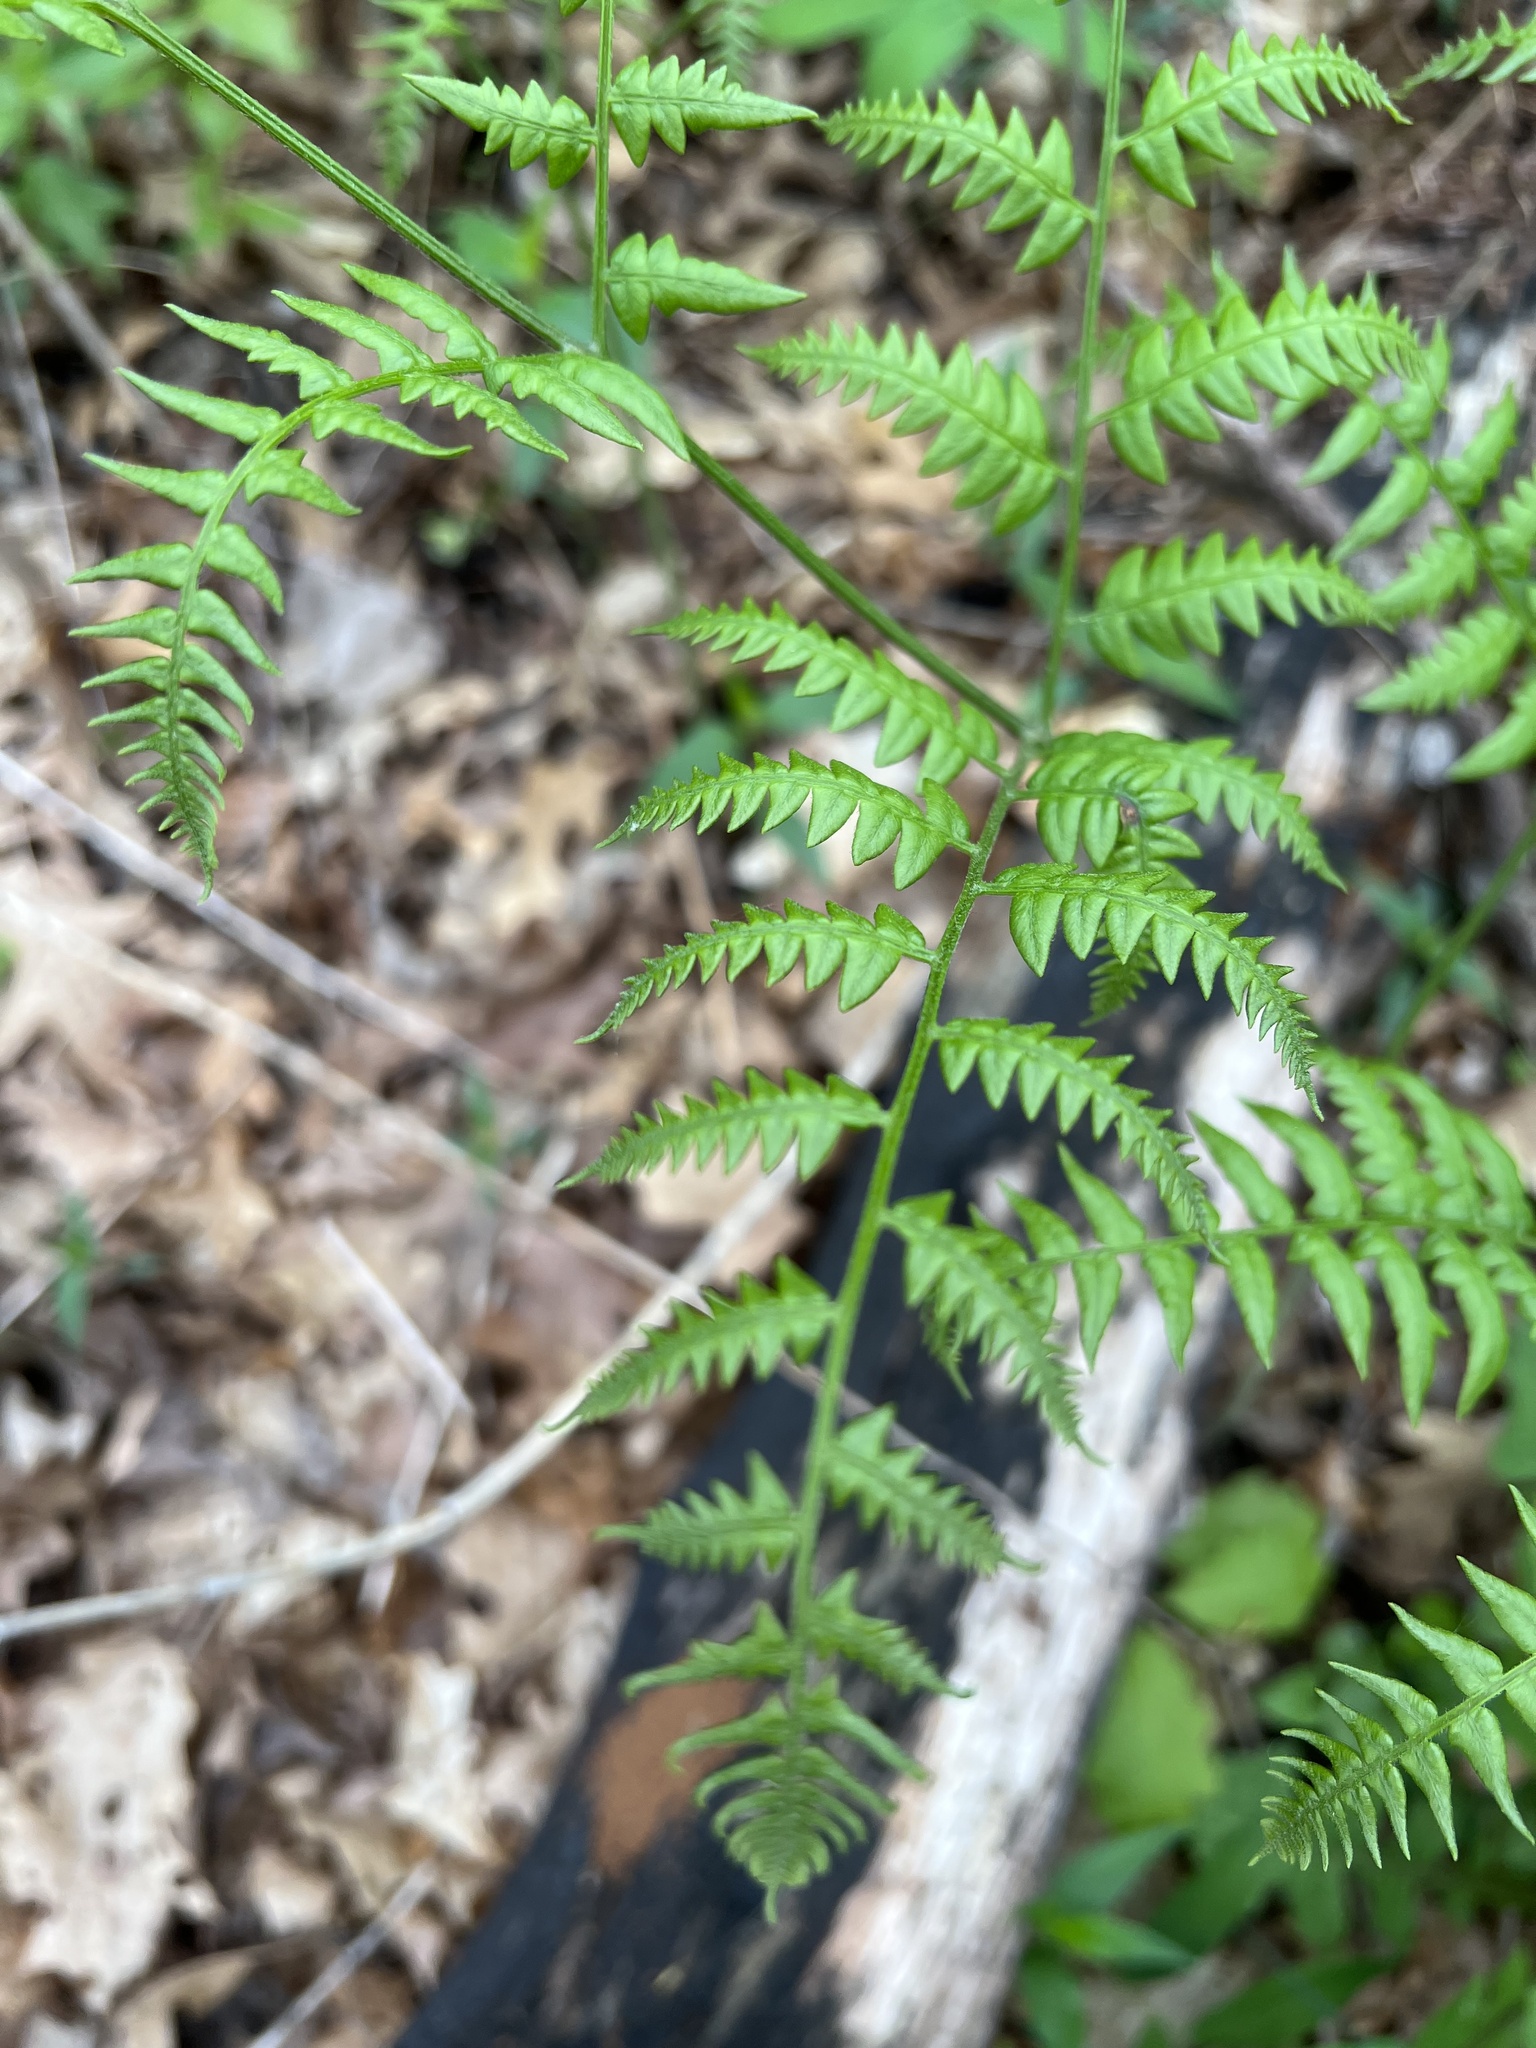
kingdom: Plantae
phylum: Tracheophyta
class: Polypodiopsida
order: Polypodiales
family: Dennstaedtiaceae
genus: Pteridium
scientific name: Pteridium aquilinum
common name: Bracken
